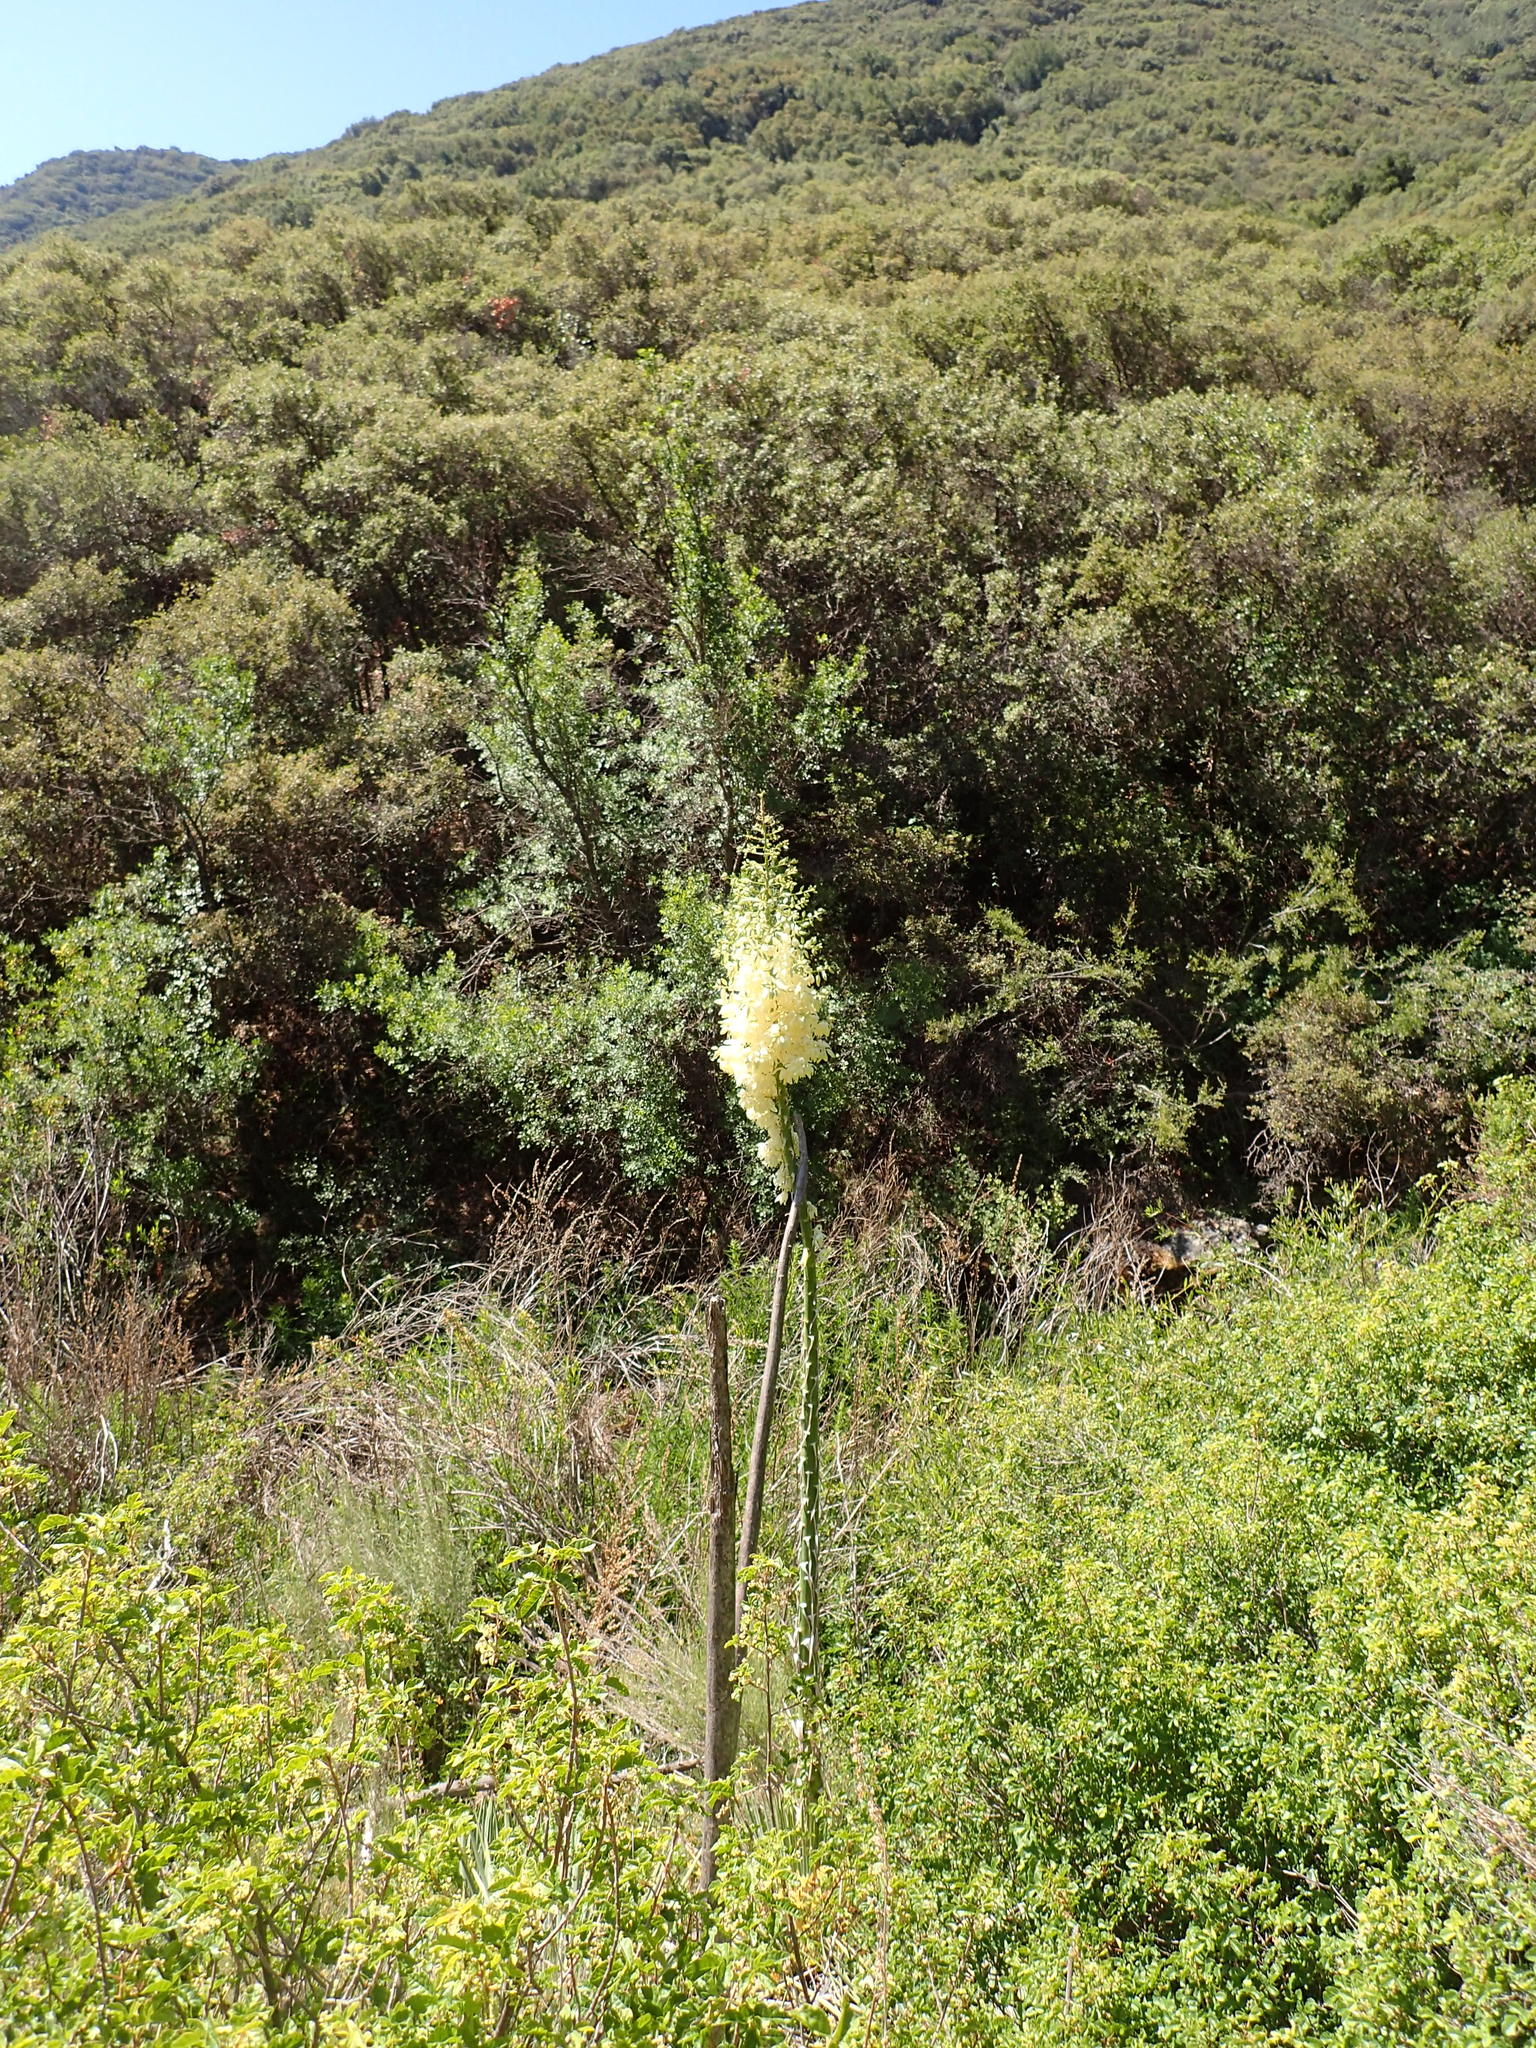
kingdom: Plantae
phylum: Tracheophyta
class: Liliopsida
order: Asparagales
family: Asparagaceae
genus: Hesperoyucca
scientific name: Hesperoyucca whipplei
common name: Our lord's-candle
